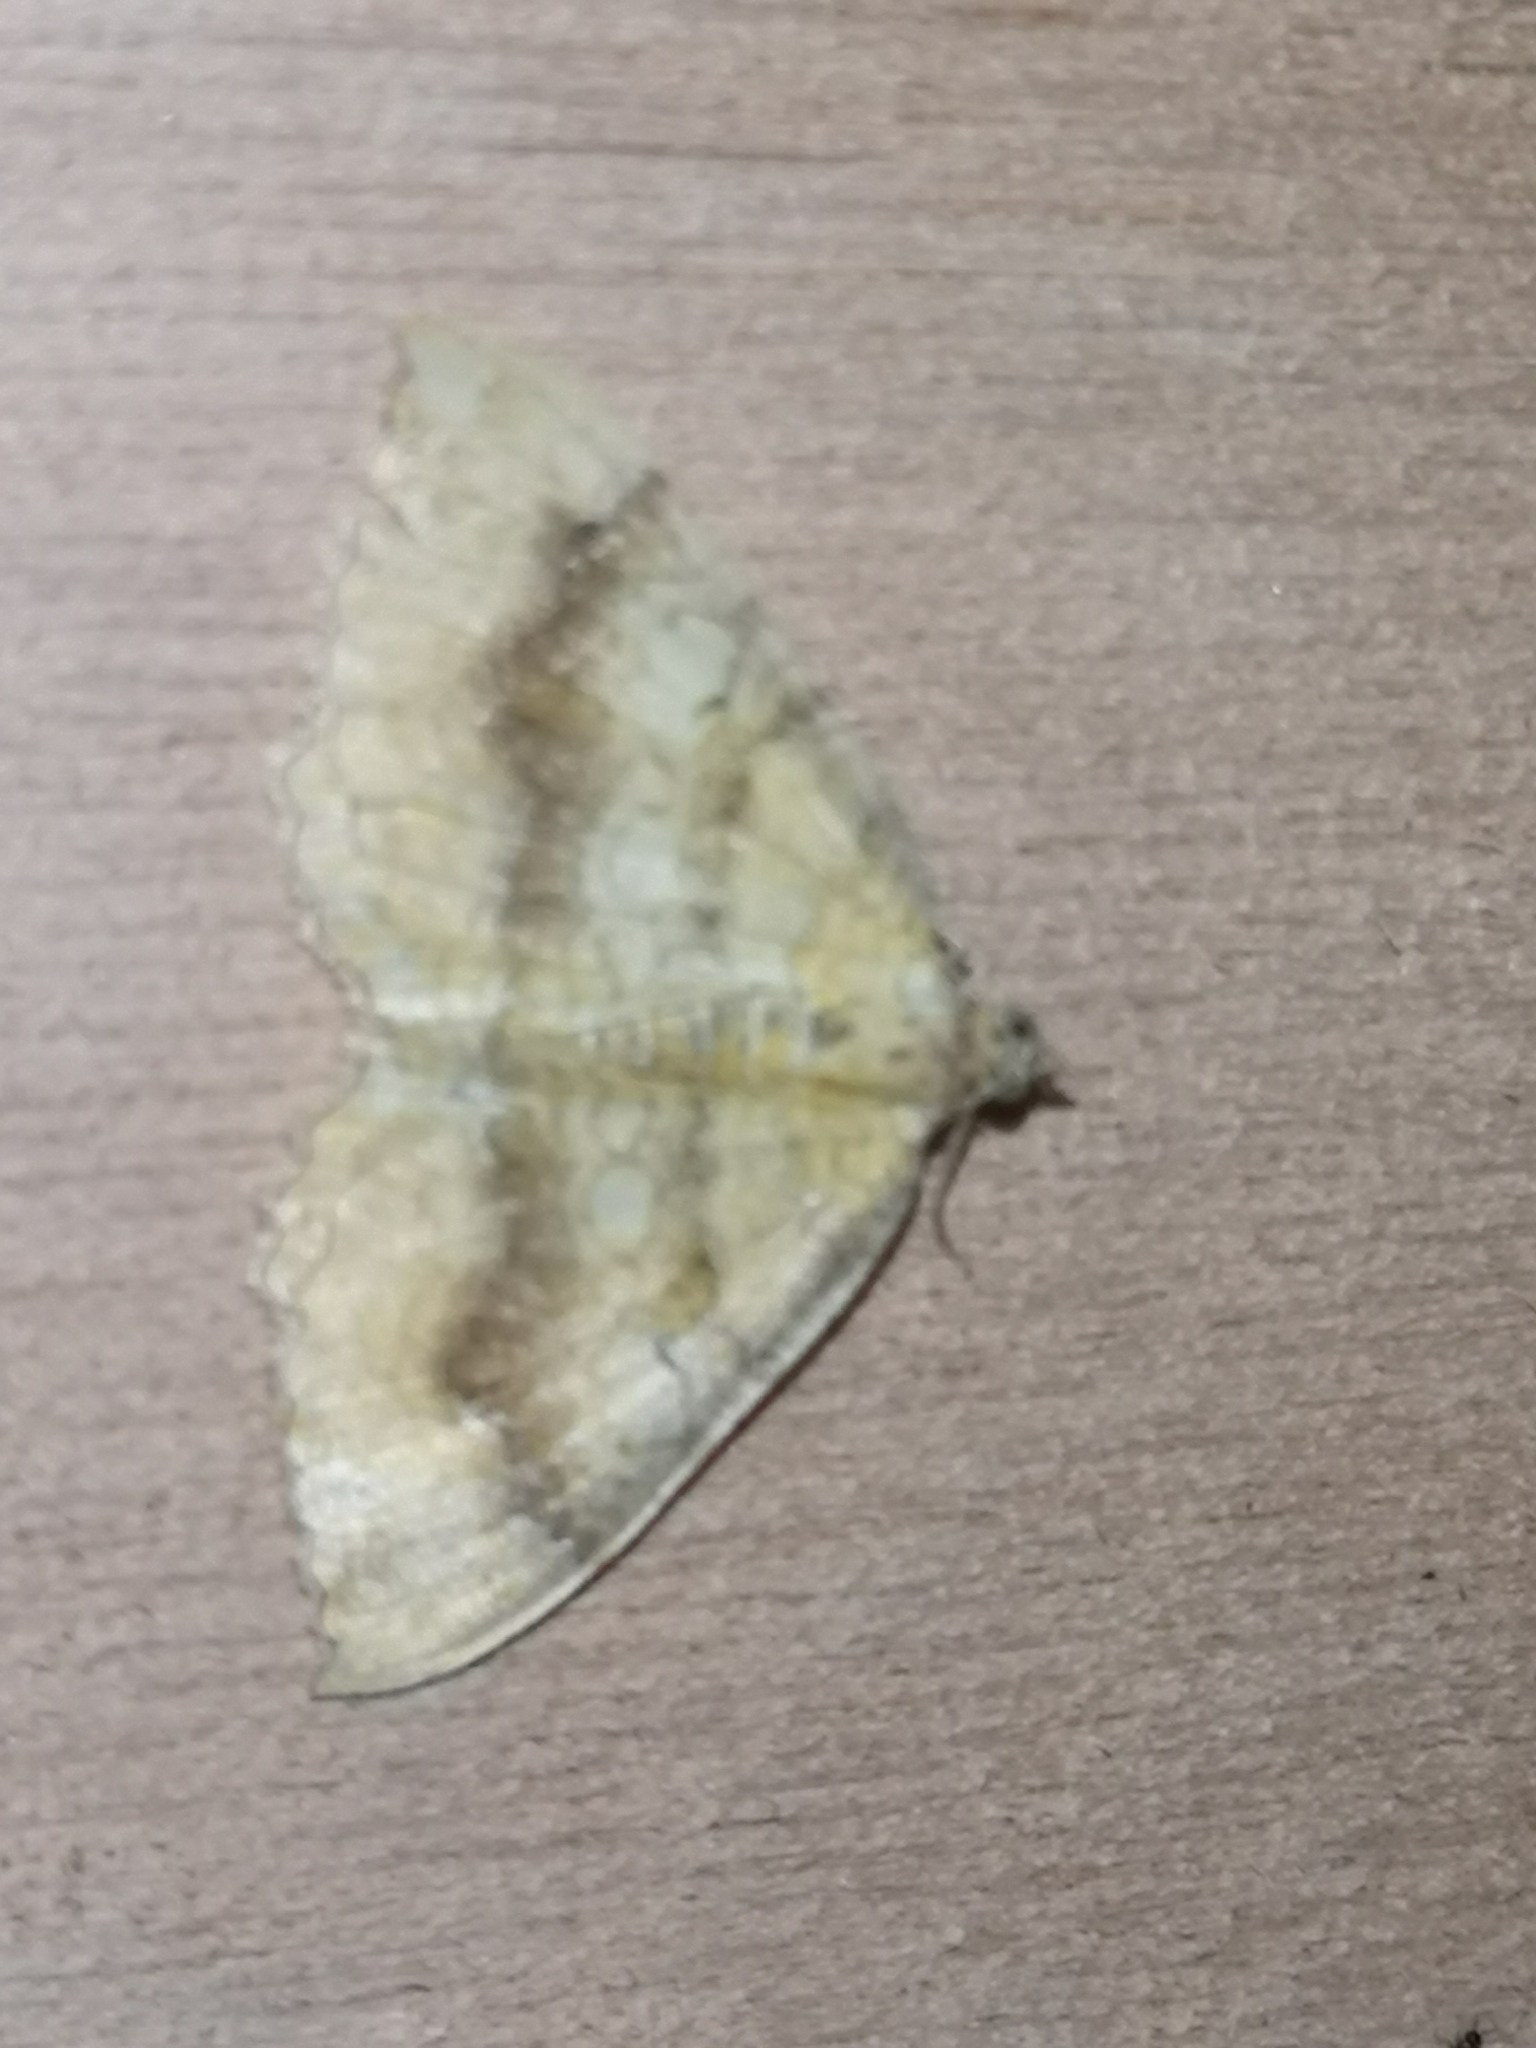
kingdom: Animalia
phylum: Arthropoda
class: Insecta
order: Lepidoptera
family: Geometridae
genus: Camptogramma
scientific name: Camptogramma bilineata
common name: Yellow shell
